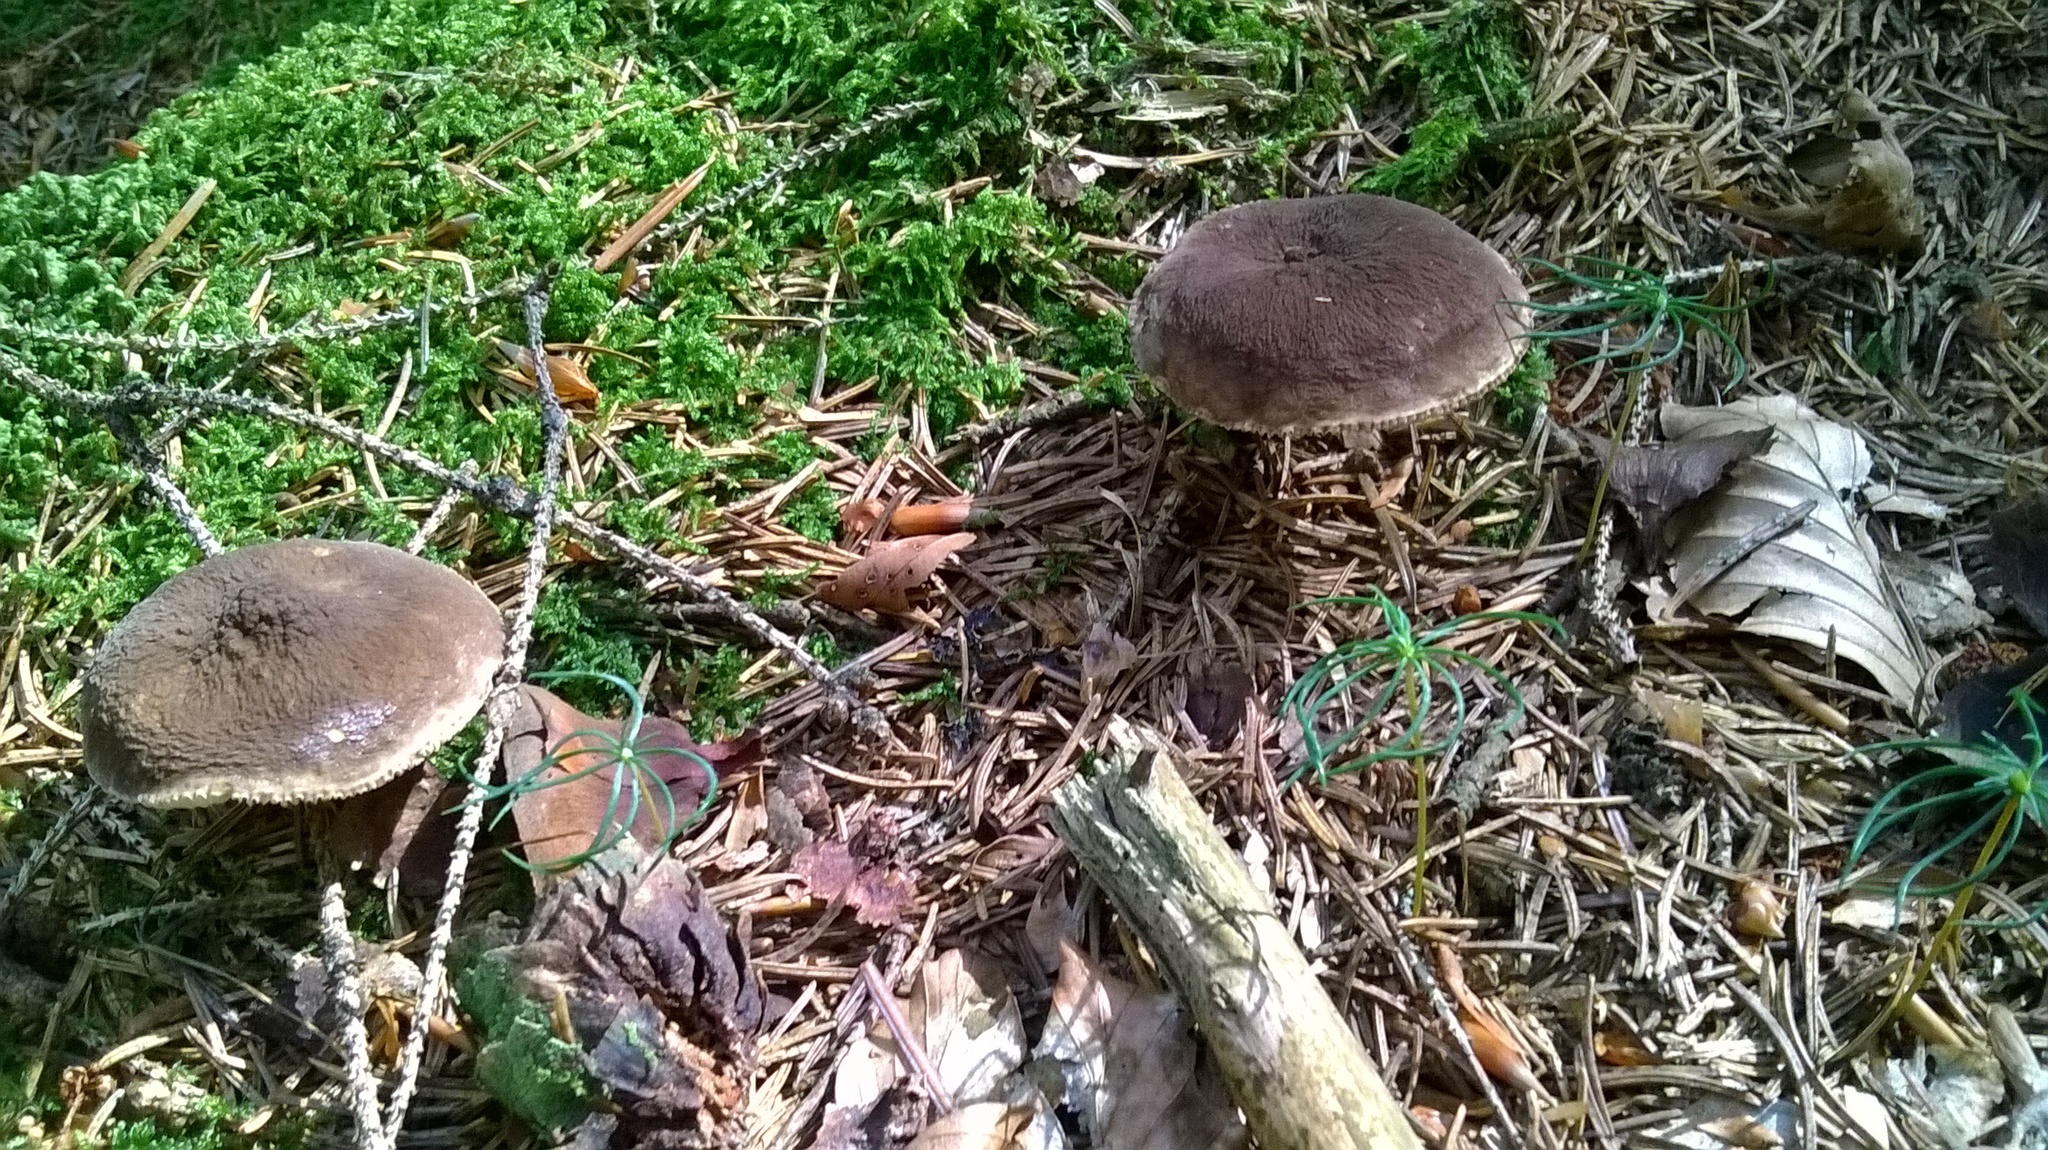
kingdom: Fungi
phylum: Basidiomycota
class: Agaricomycetes
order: Russulales
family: Russulaceae
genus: Lactarius
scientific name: Lactarius lignyotus
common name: Velvet milkcap
